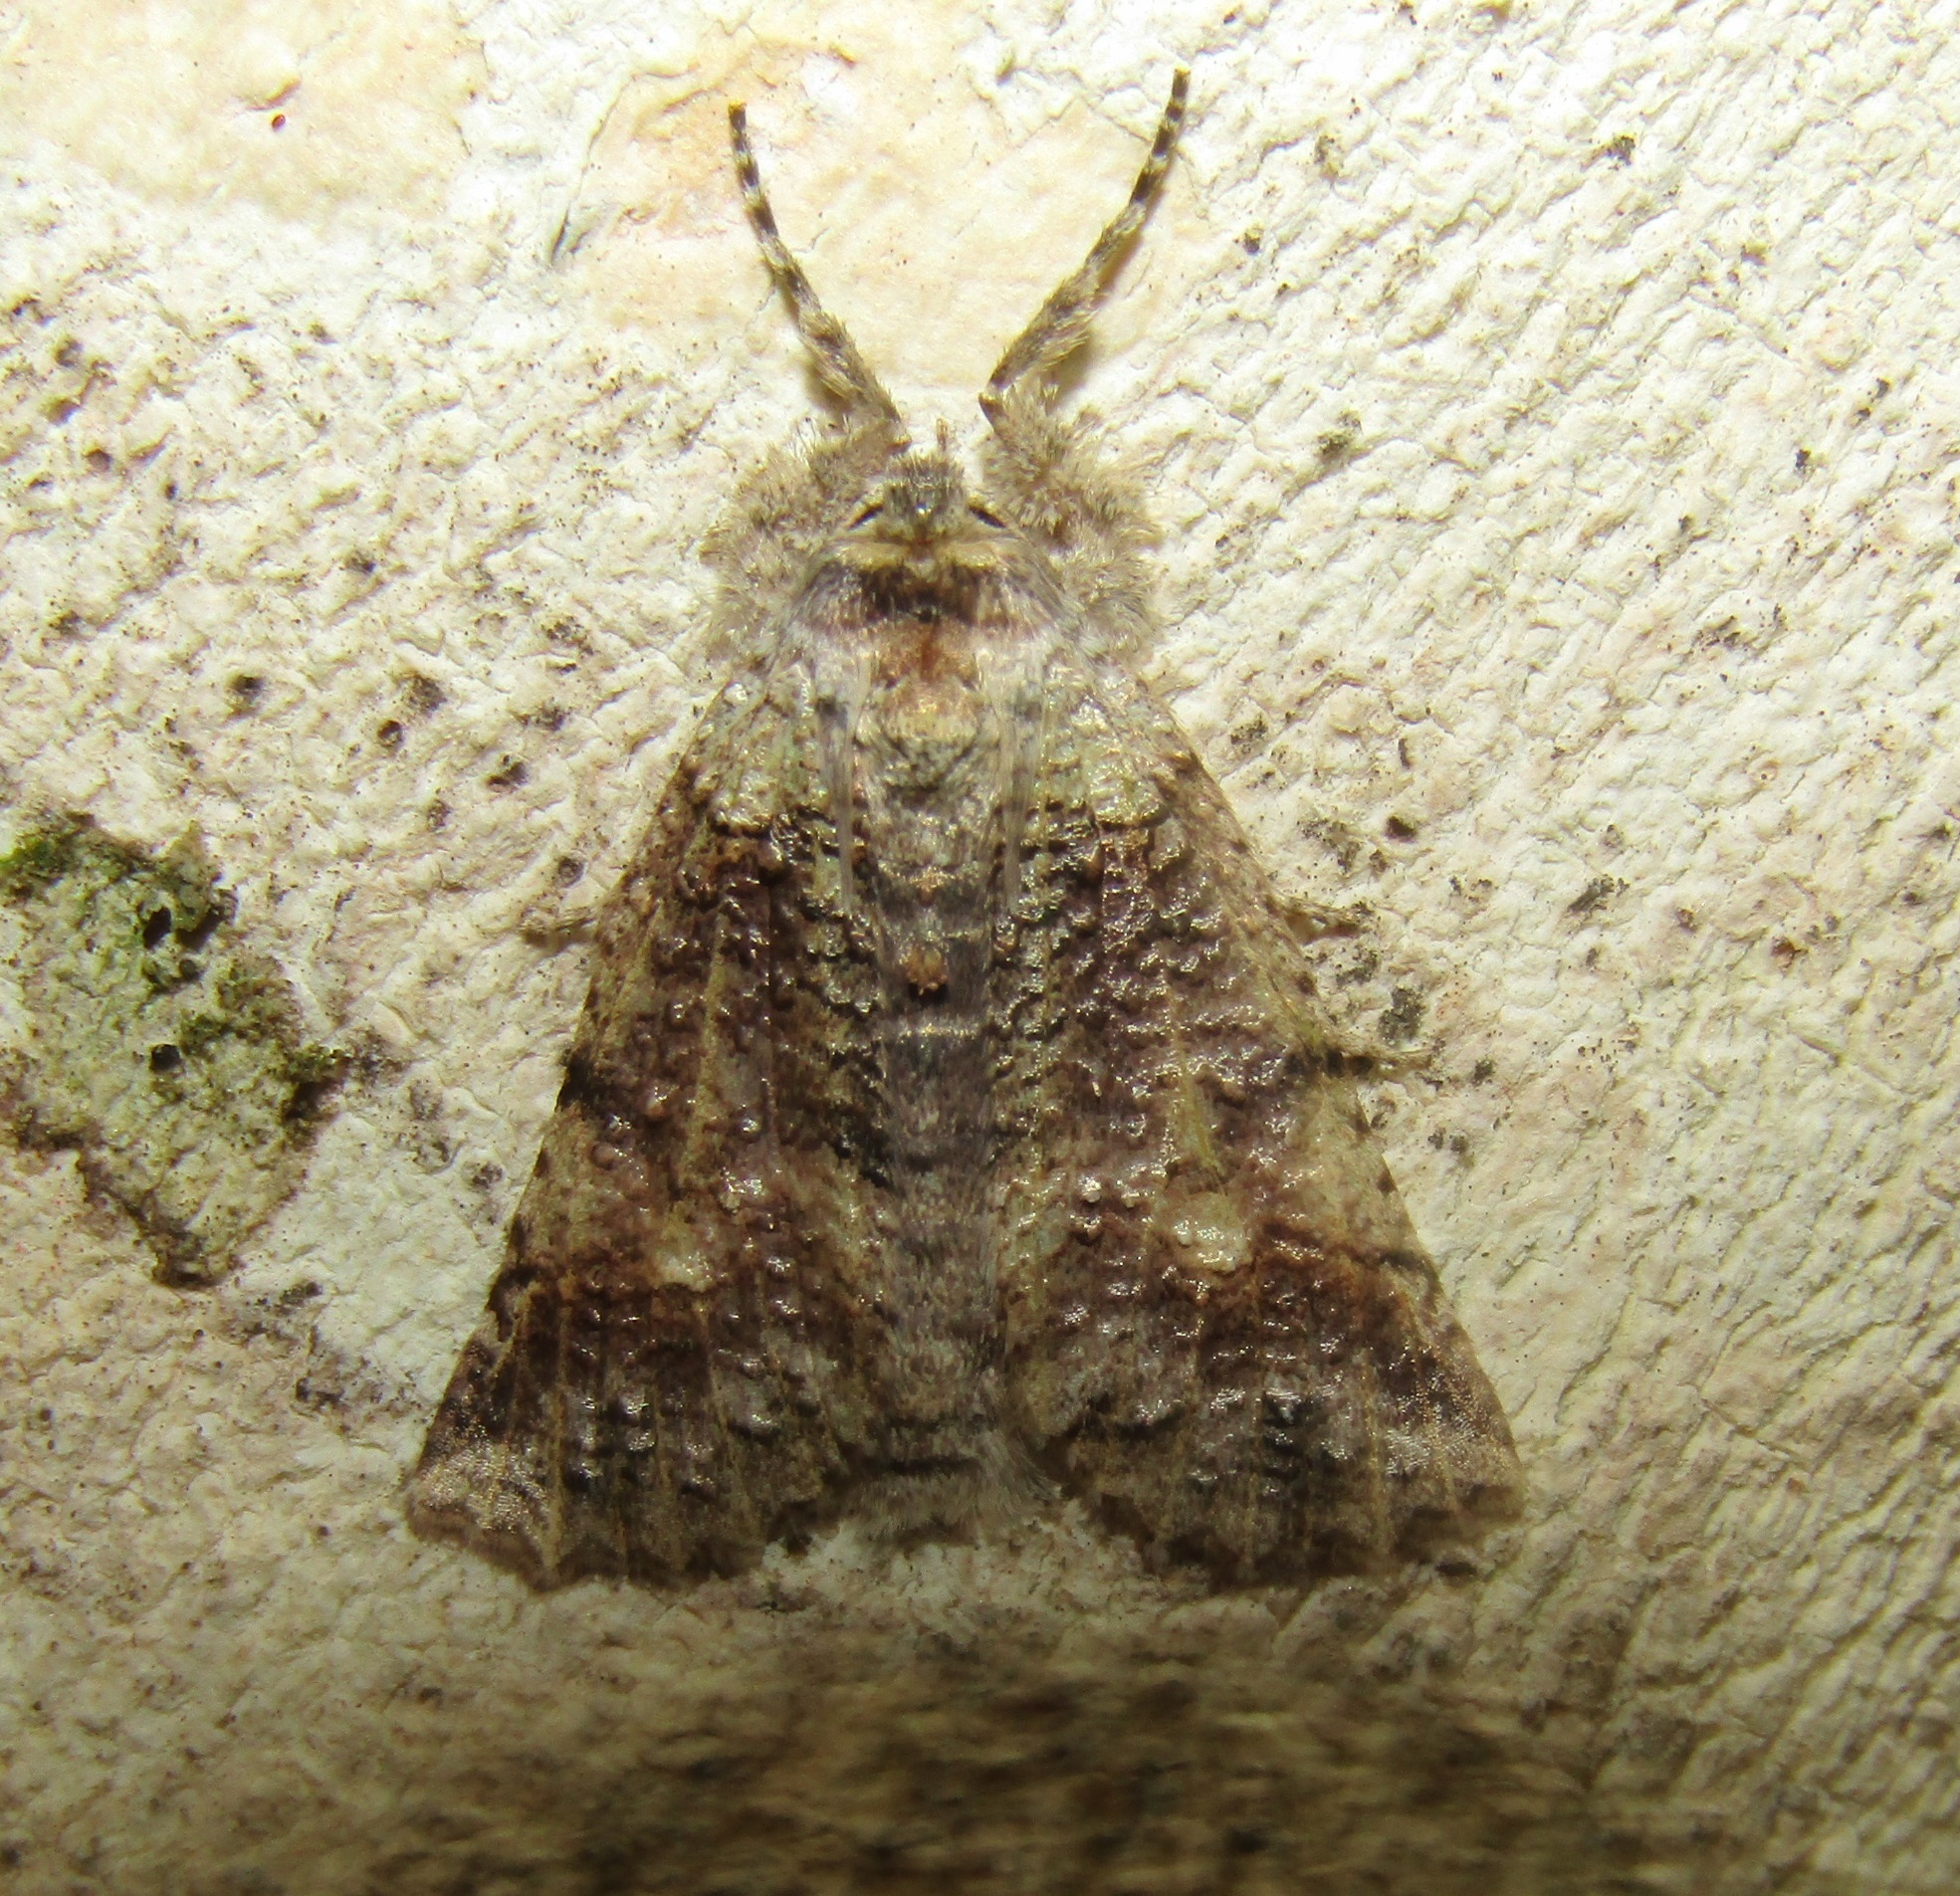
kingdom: Animalia
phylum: Arthropoda
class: Insecta
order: Lepidoptera
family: Geometridae
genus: Declana
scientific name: Declana floccosa
